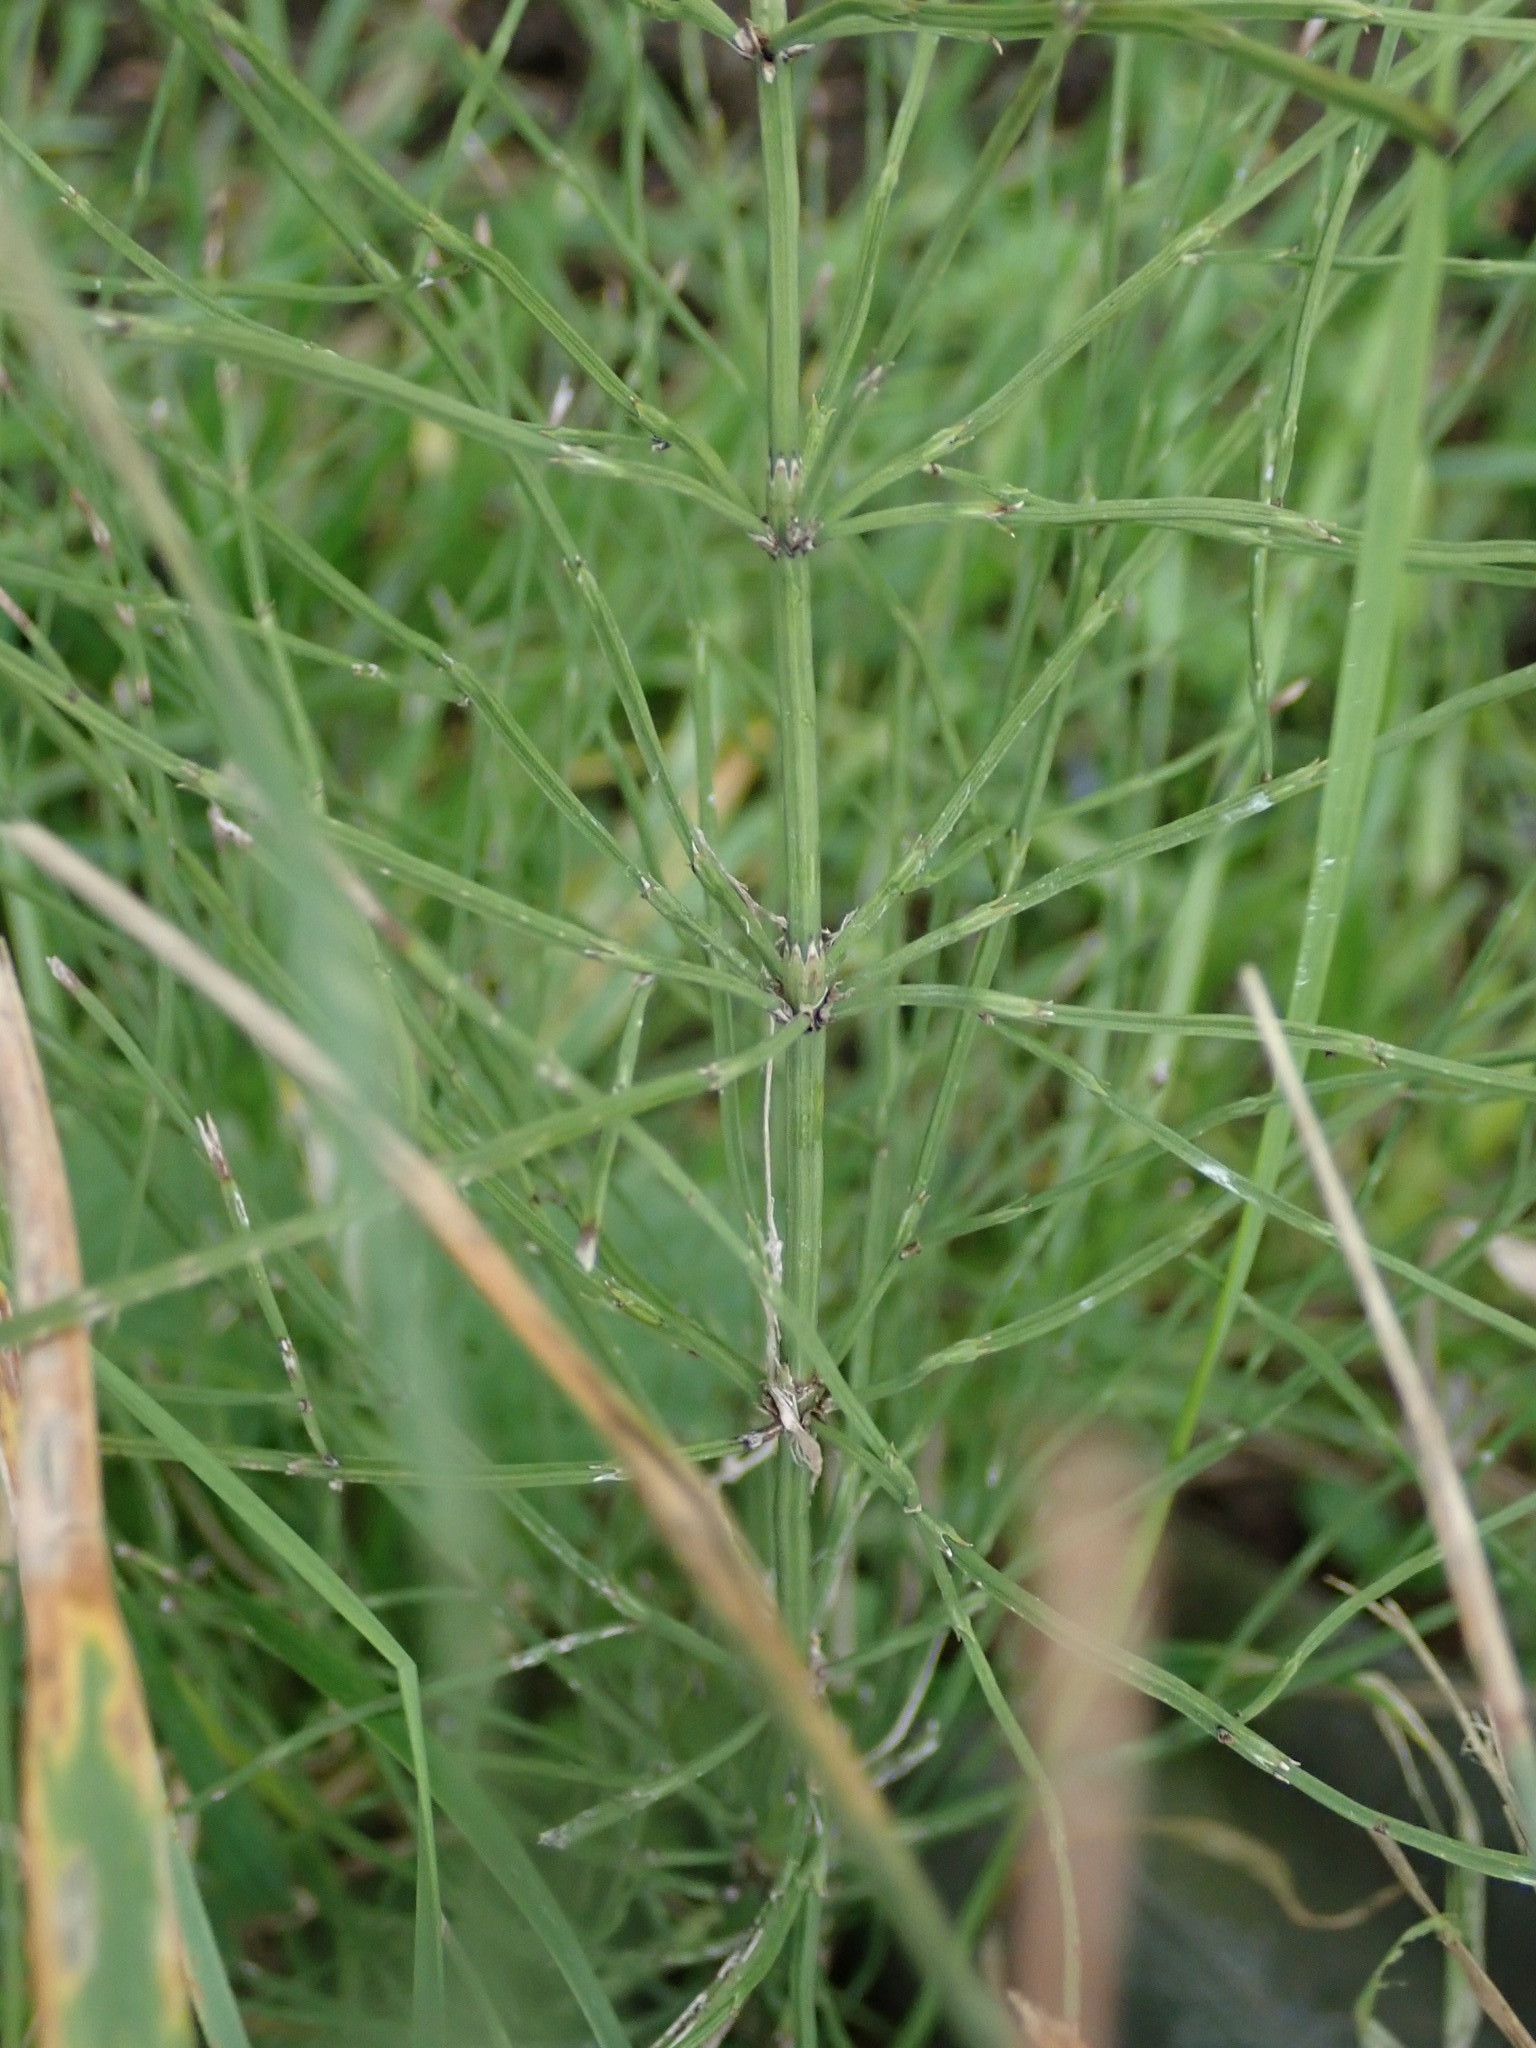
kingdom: Plantae
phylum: Tracheophyta
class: Polypodiopsida
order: Equisetales
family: Equisetaceae
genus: Equisetum
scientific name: Equisetum palustre
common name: Marsh horsetail
